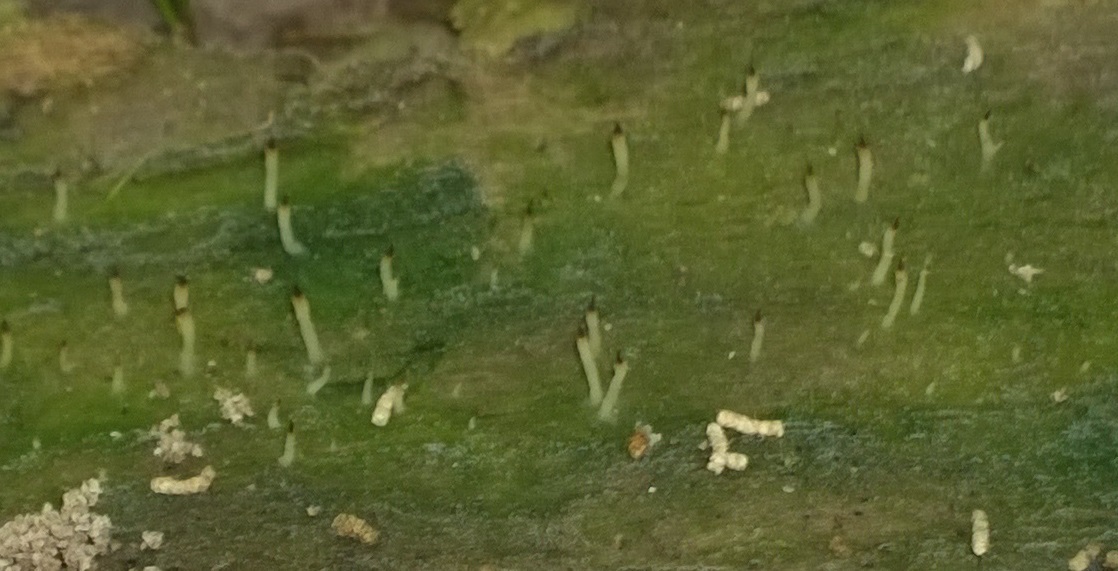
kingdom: Fungi
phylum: Basidiomycota
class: Agaricomycetes
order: Cantharellales
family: Hydnaceae
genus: Multiclavula
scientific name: Multiclavula mucida
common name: White green-algae coral
